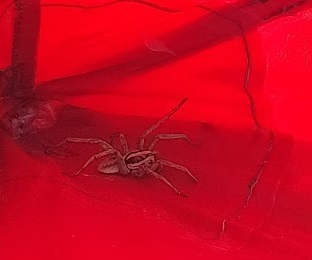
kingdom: Animalia
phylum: Arthropoda
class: Arachnida
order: Araneae
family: Lycosidae
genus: Hogna
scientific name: Hogna radiata
